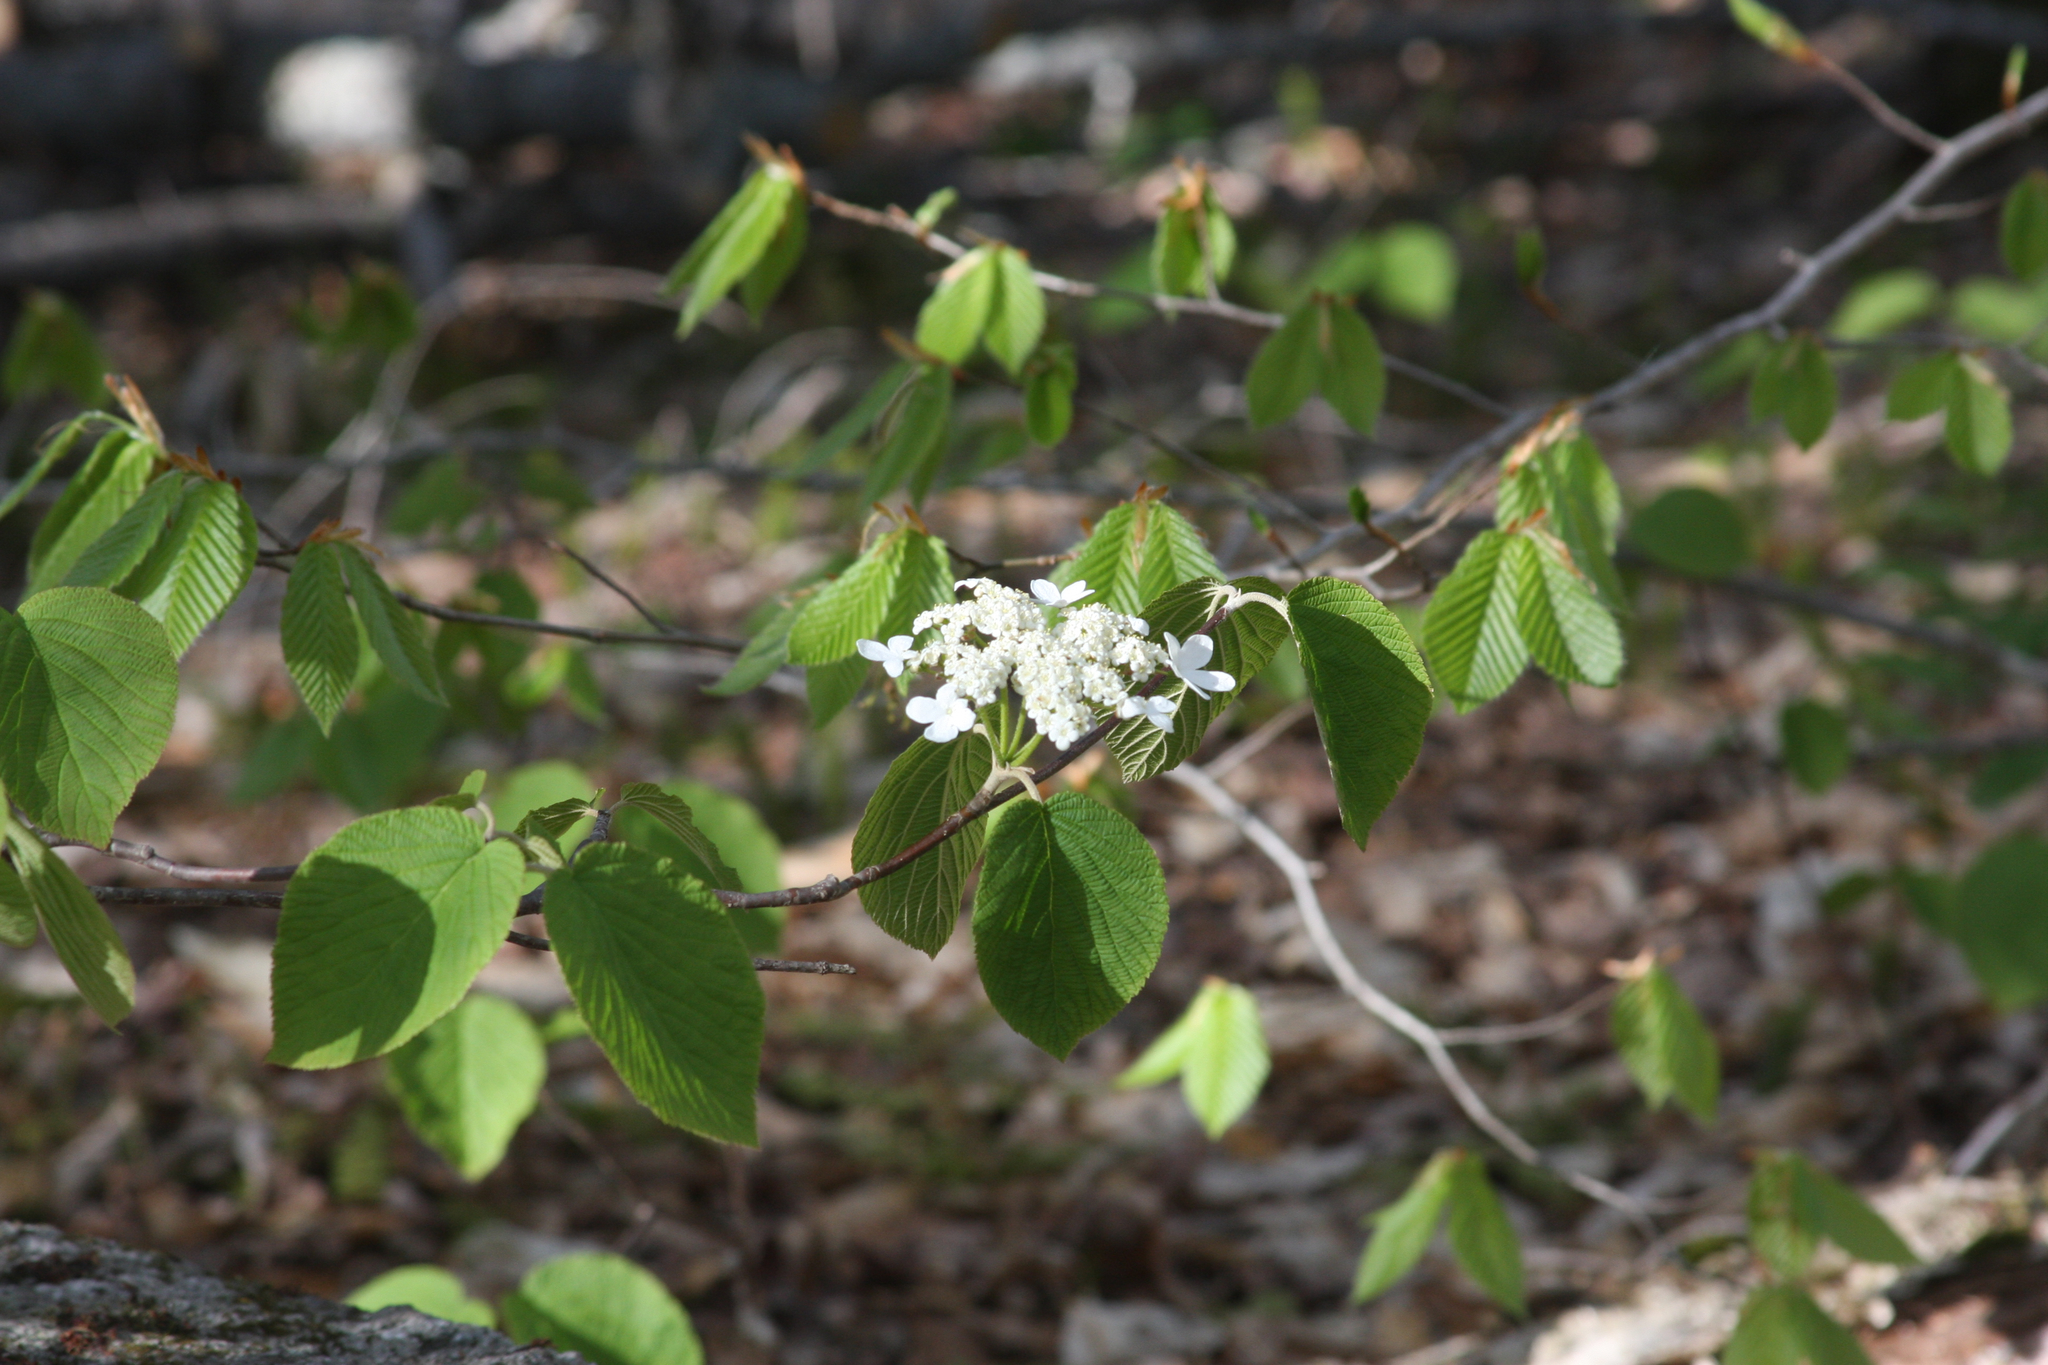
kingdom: Plantae
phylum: Tracheophyta
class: Magnoliopsida
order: Dipsacales
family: Viburnaceae
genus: Viburnum
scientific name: Viburnum lantanoides
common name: Hobblebush
